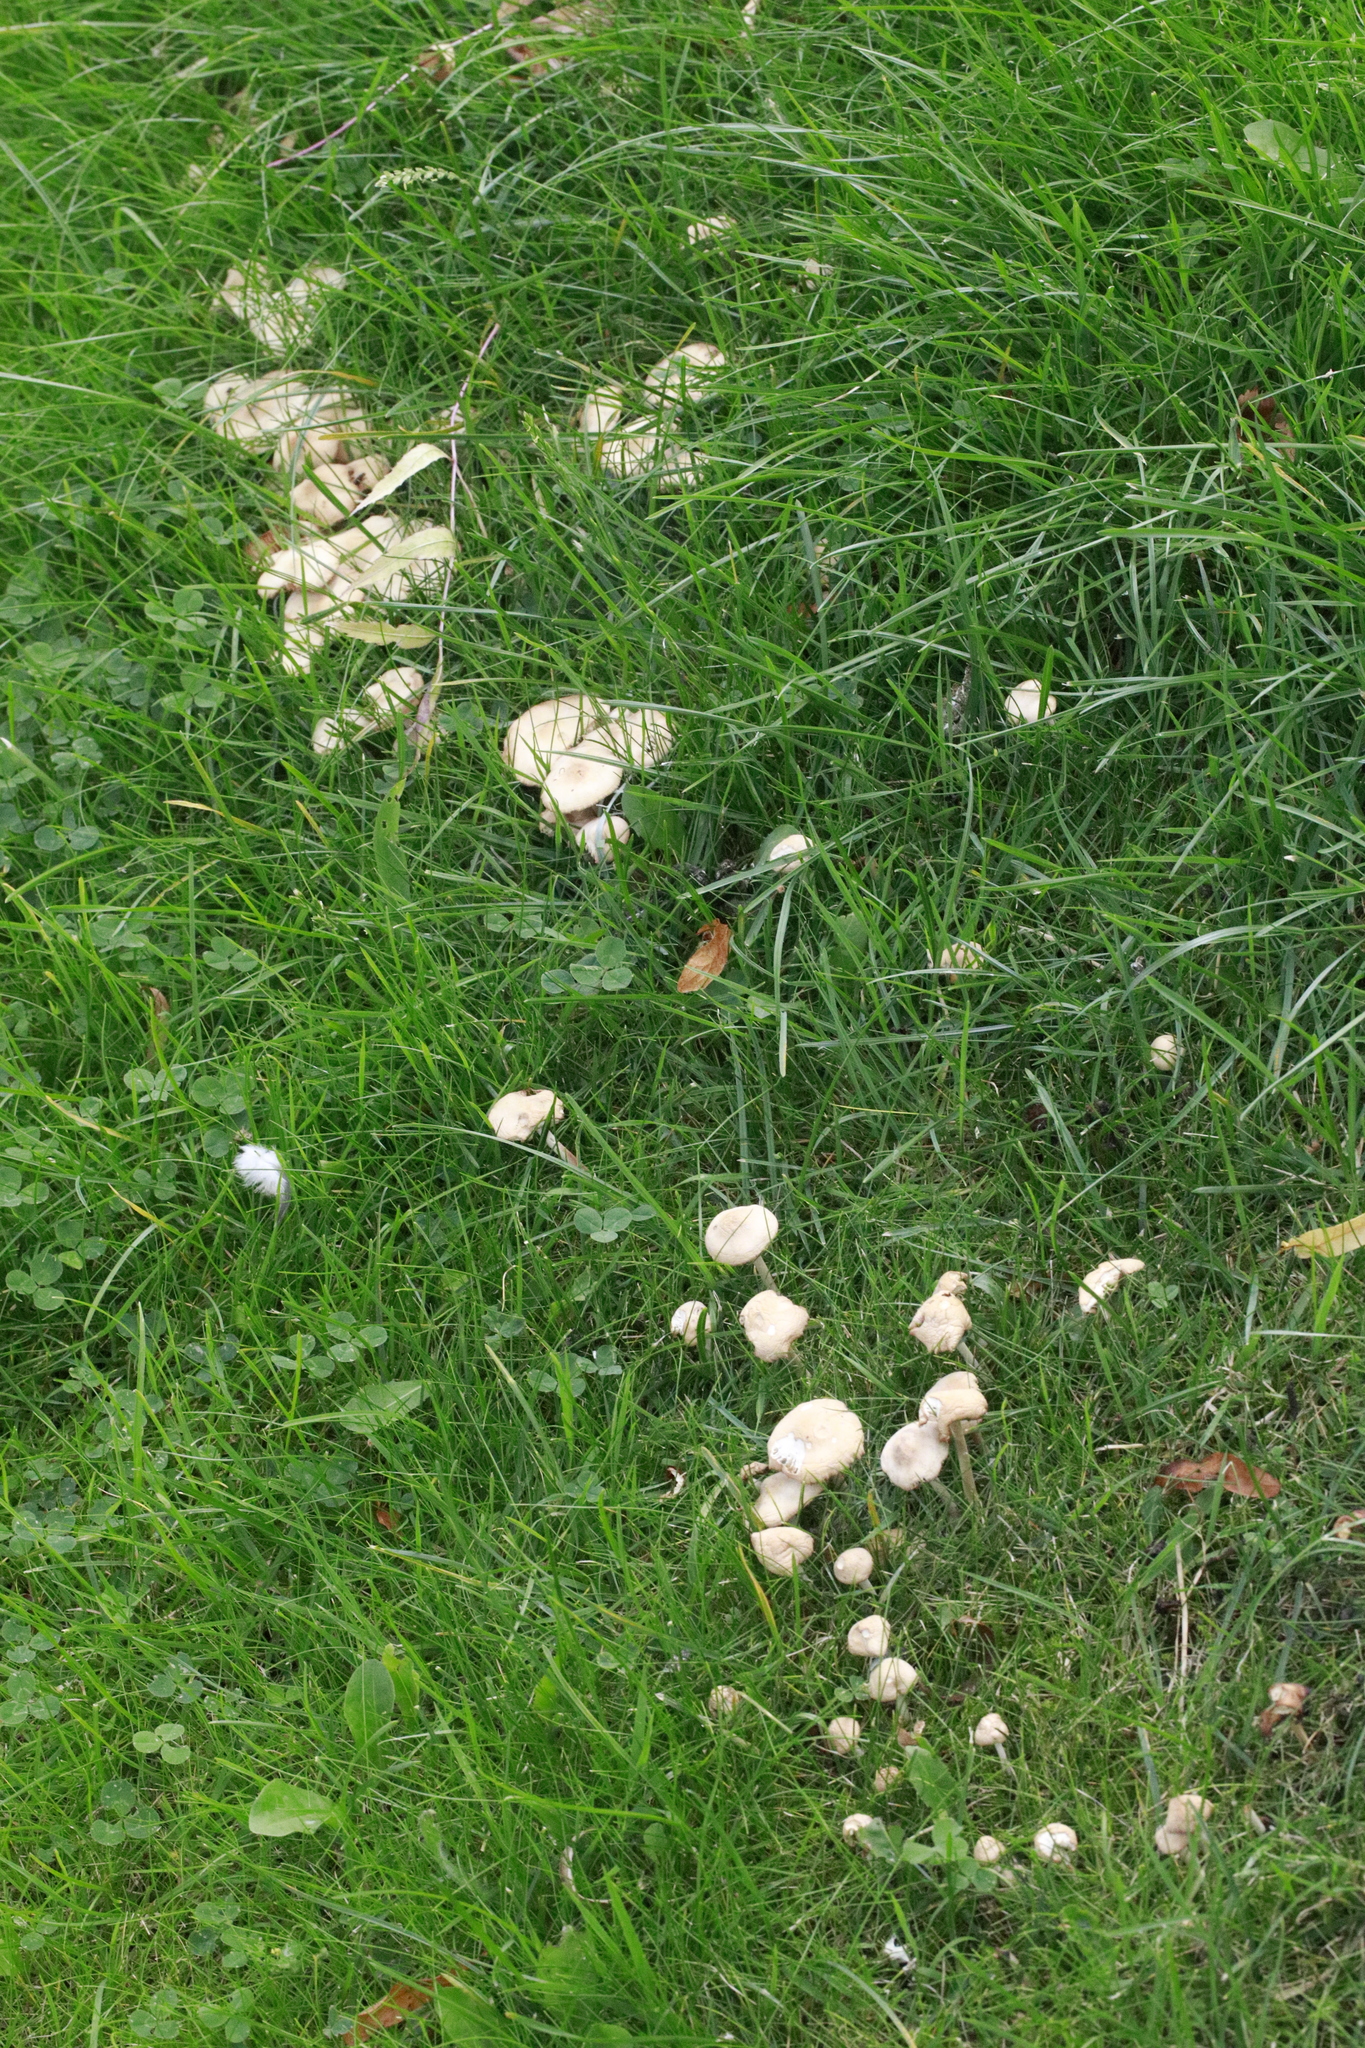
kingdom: Fungi
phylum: Basidiomycota
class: Agaricomycetes
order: Agaricales
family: Marasmiaceae
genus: Marasmius
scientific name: Marasmius oreades
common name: Fairy ring champignon
